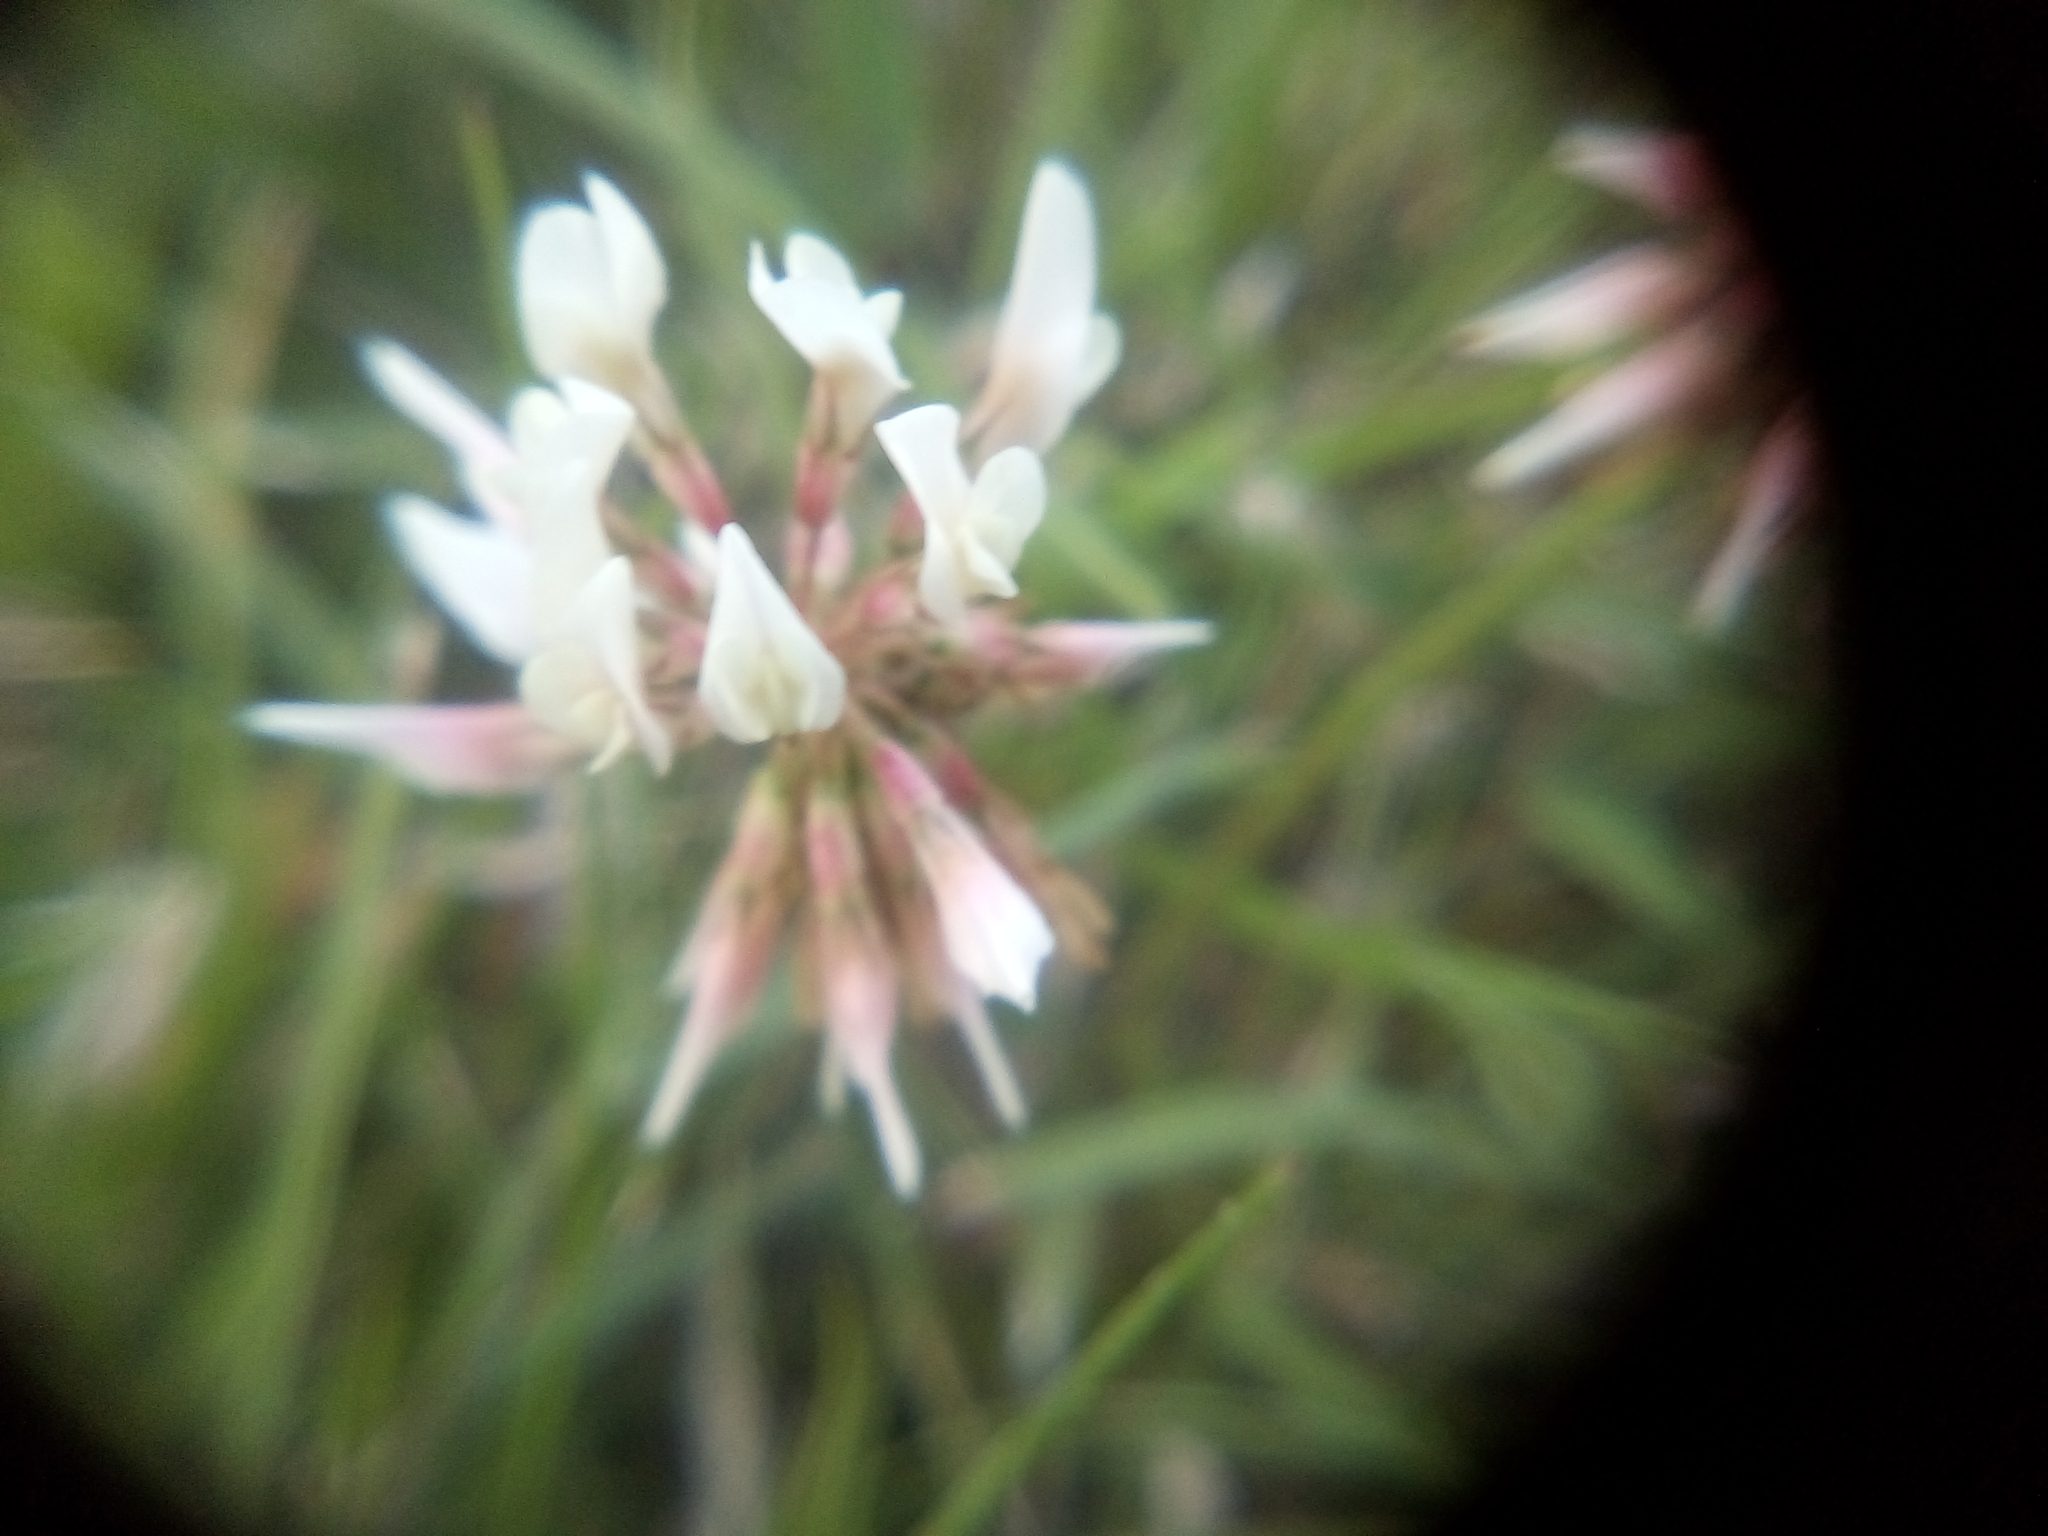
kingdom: Plantae
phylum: Tracheophyta
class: Magnoliopsida
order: Fabales
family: Fabaceae
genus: Trifolium
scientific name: Trifolium repens
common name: White clover
